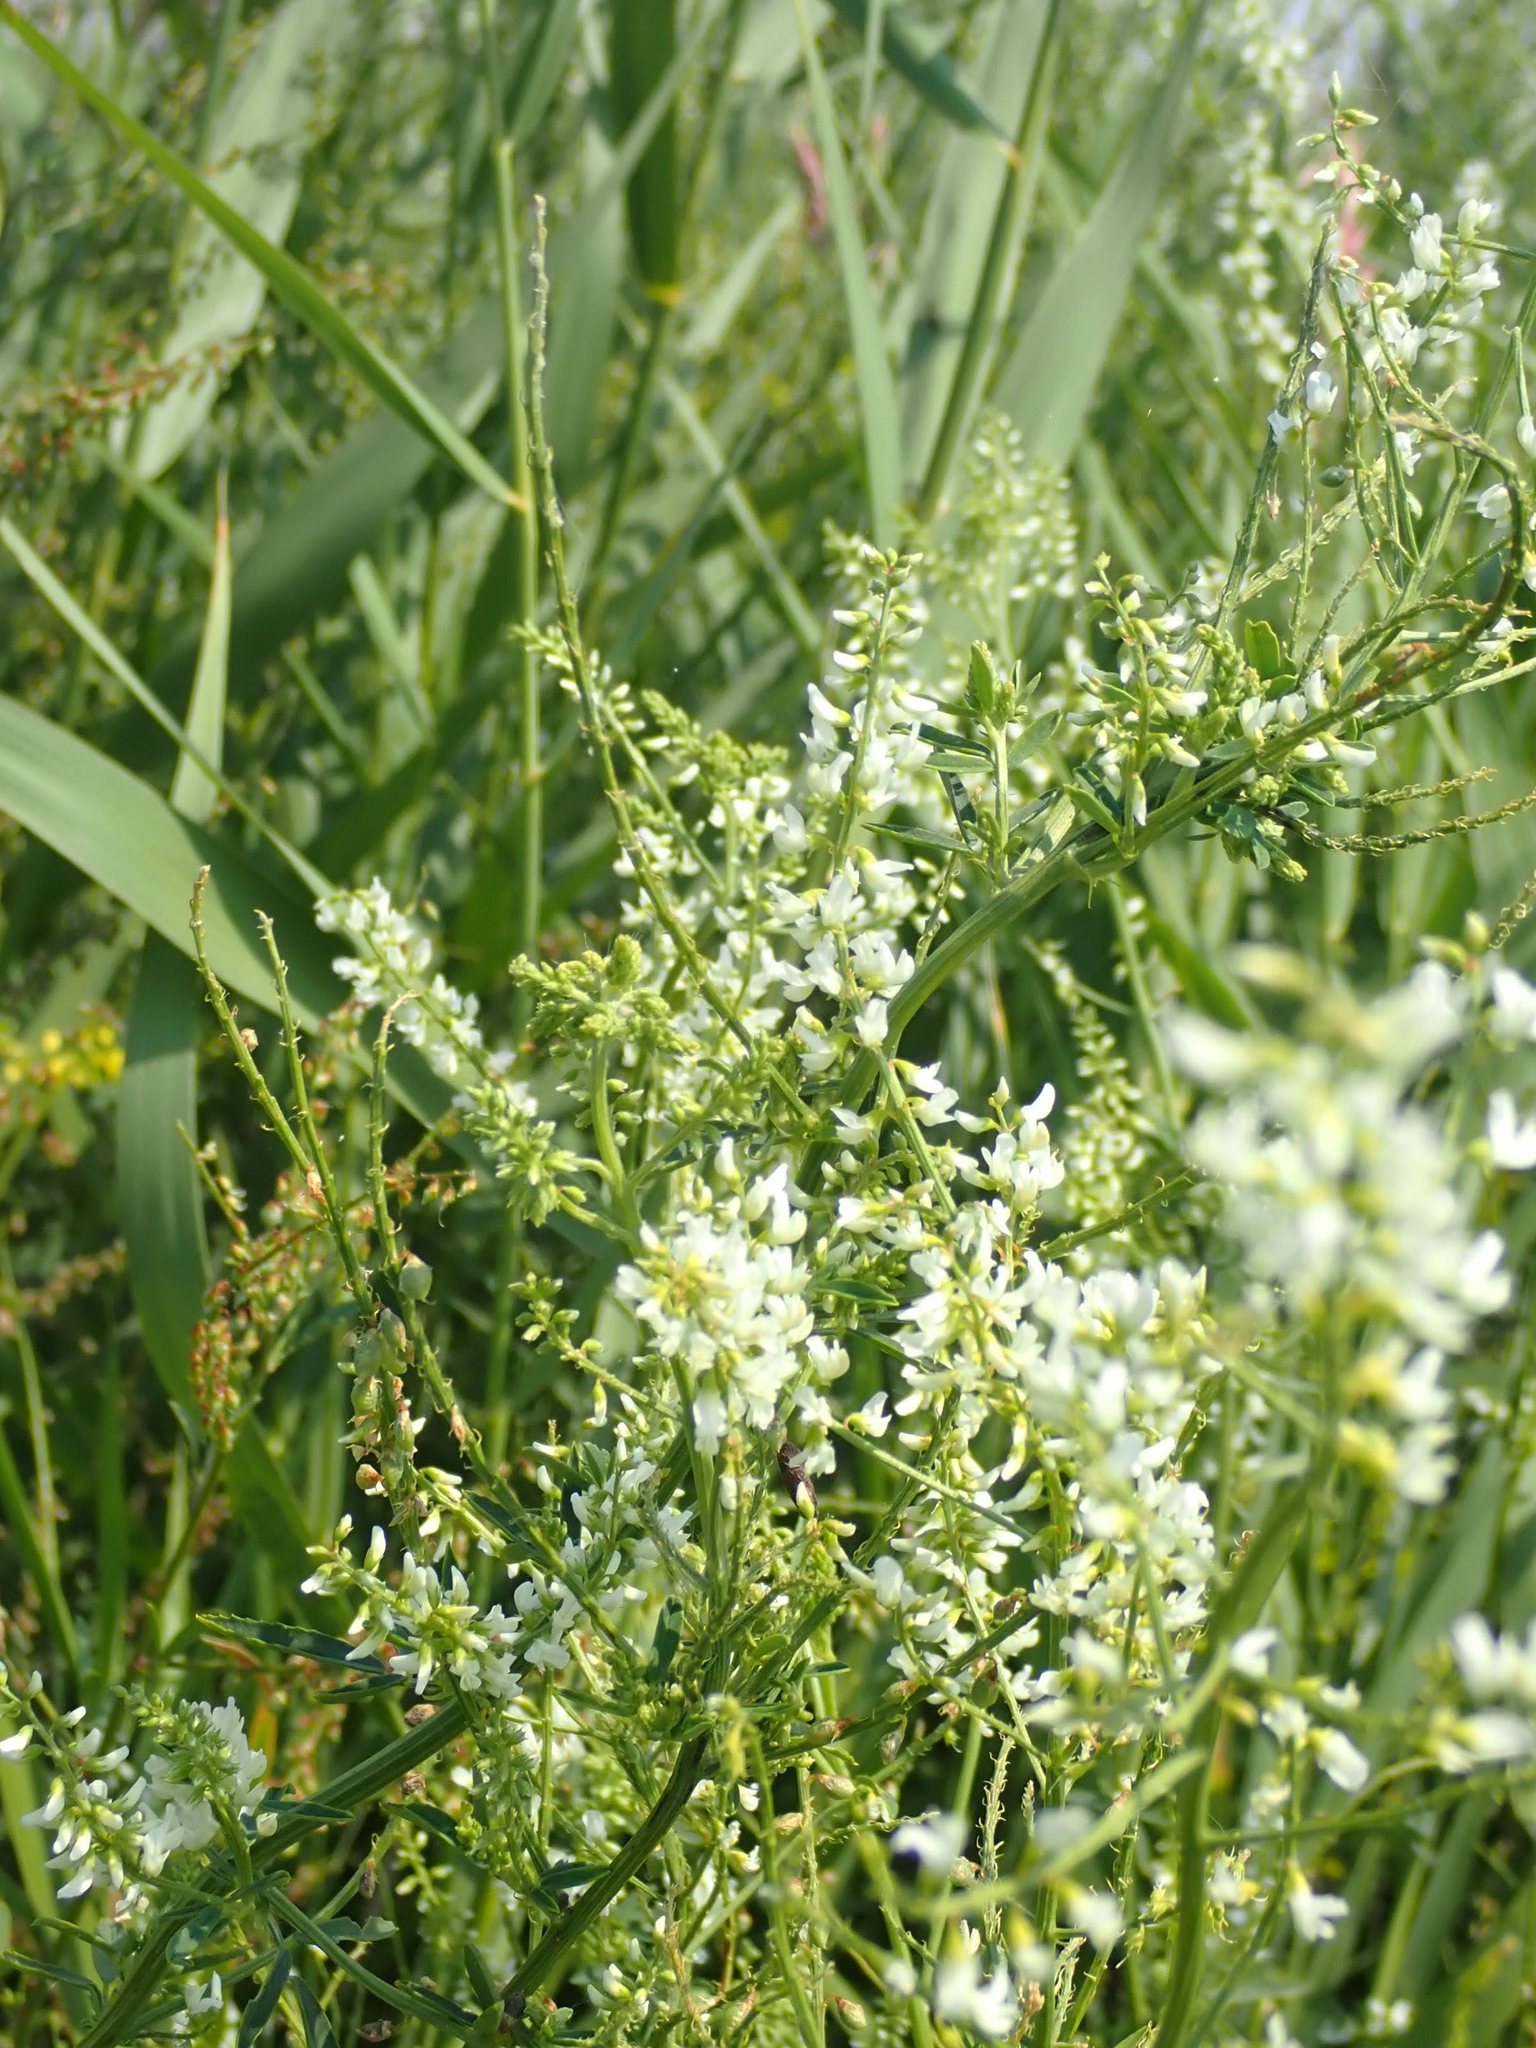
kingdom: Plantae
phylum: Tracheophyta
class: Magnoliopsida
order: Fabales
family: Fabaceae
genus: Melilotus
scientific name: Melilotus albus
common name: White melilot
